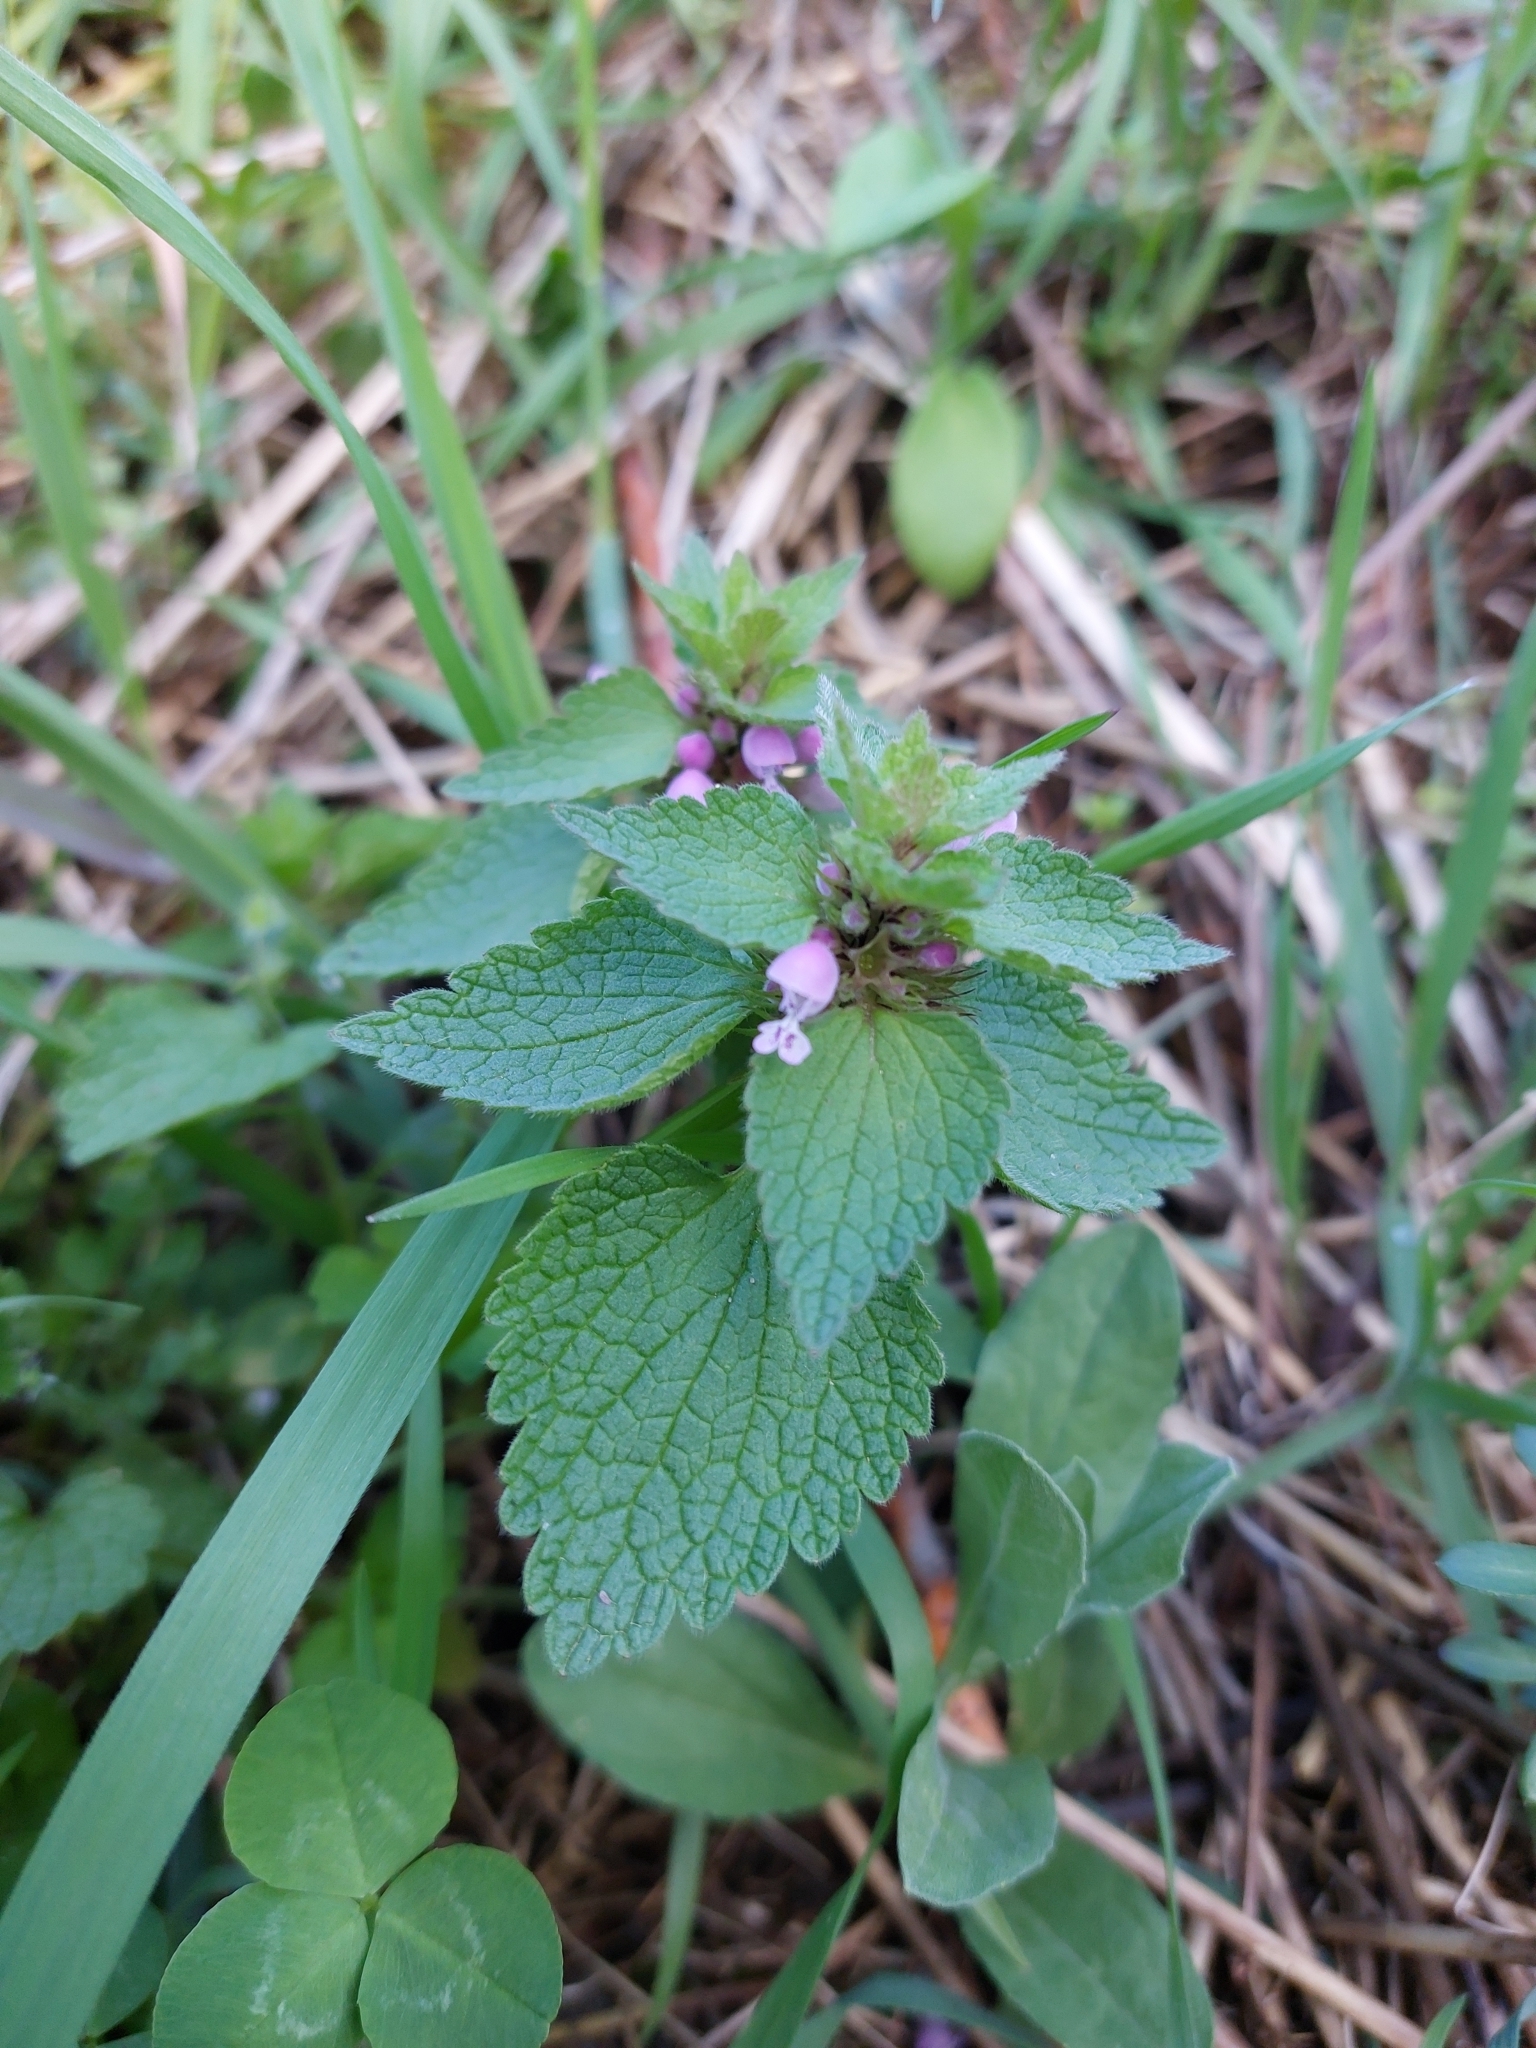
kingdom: Plantae
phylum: Tracheophyta
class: Magnoliopsida
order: Lamiales
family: Lamiaceae
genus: Lamium
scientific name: Lamium purpureum
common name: Red dead-nettle
